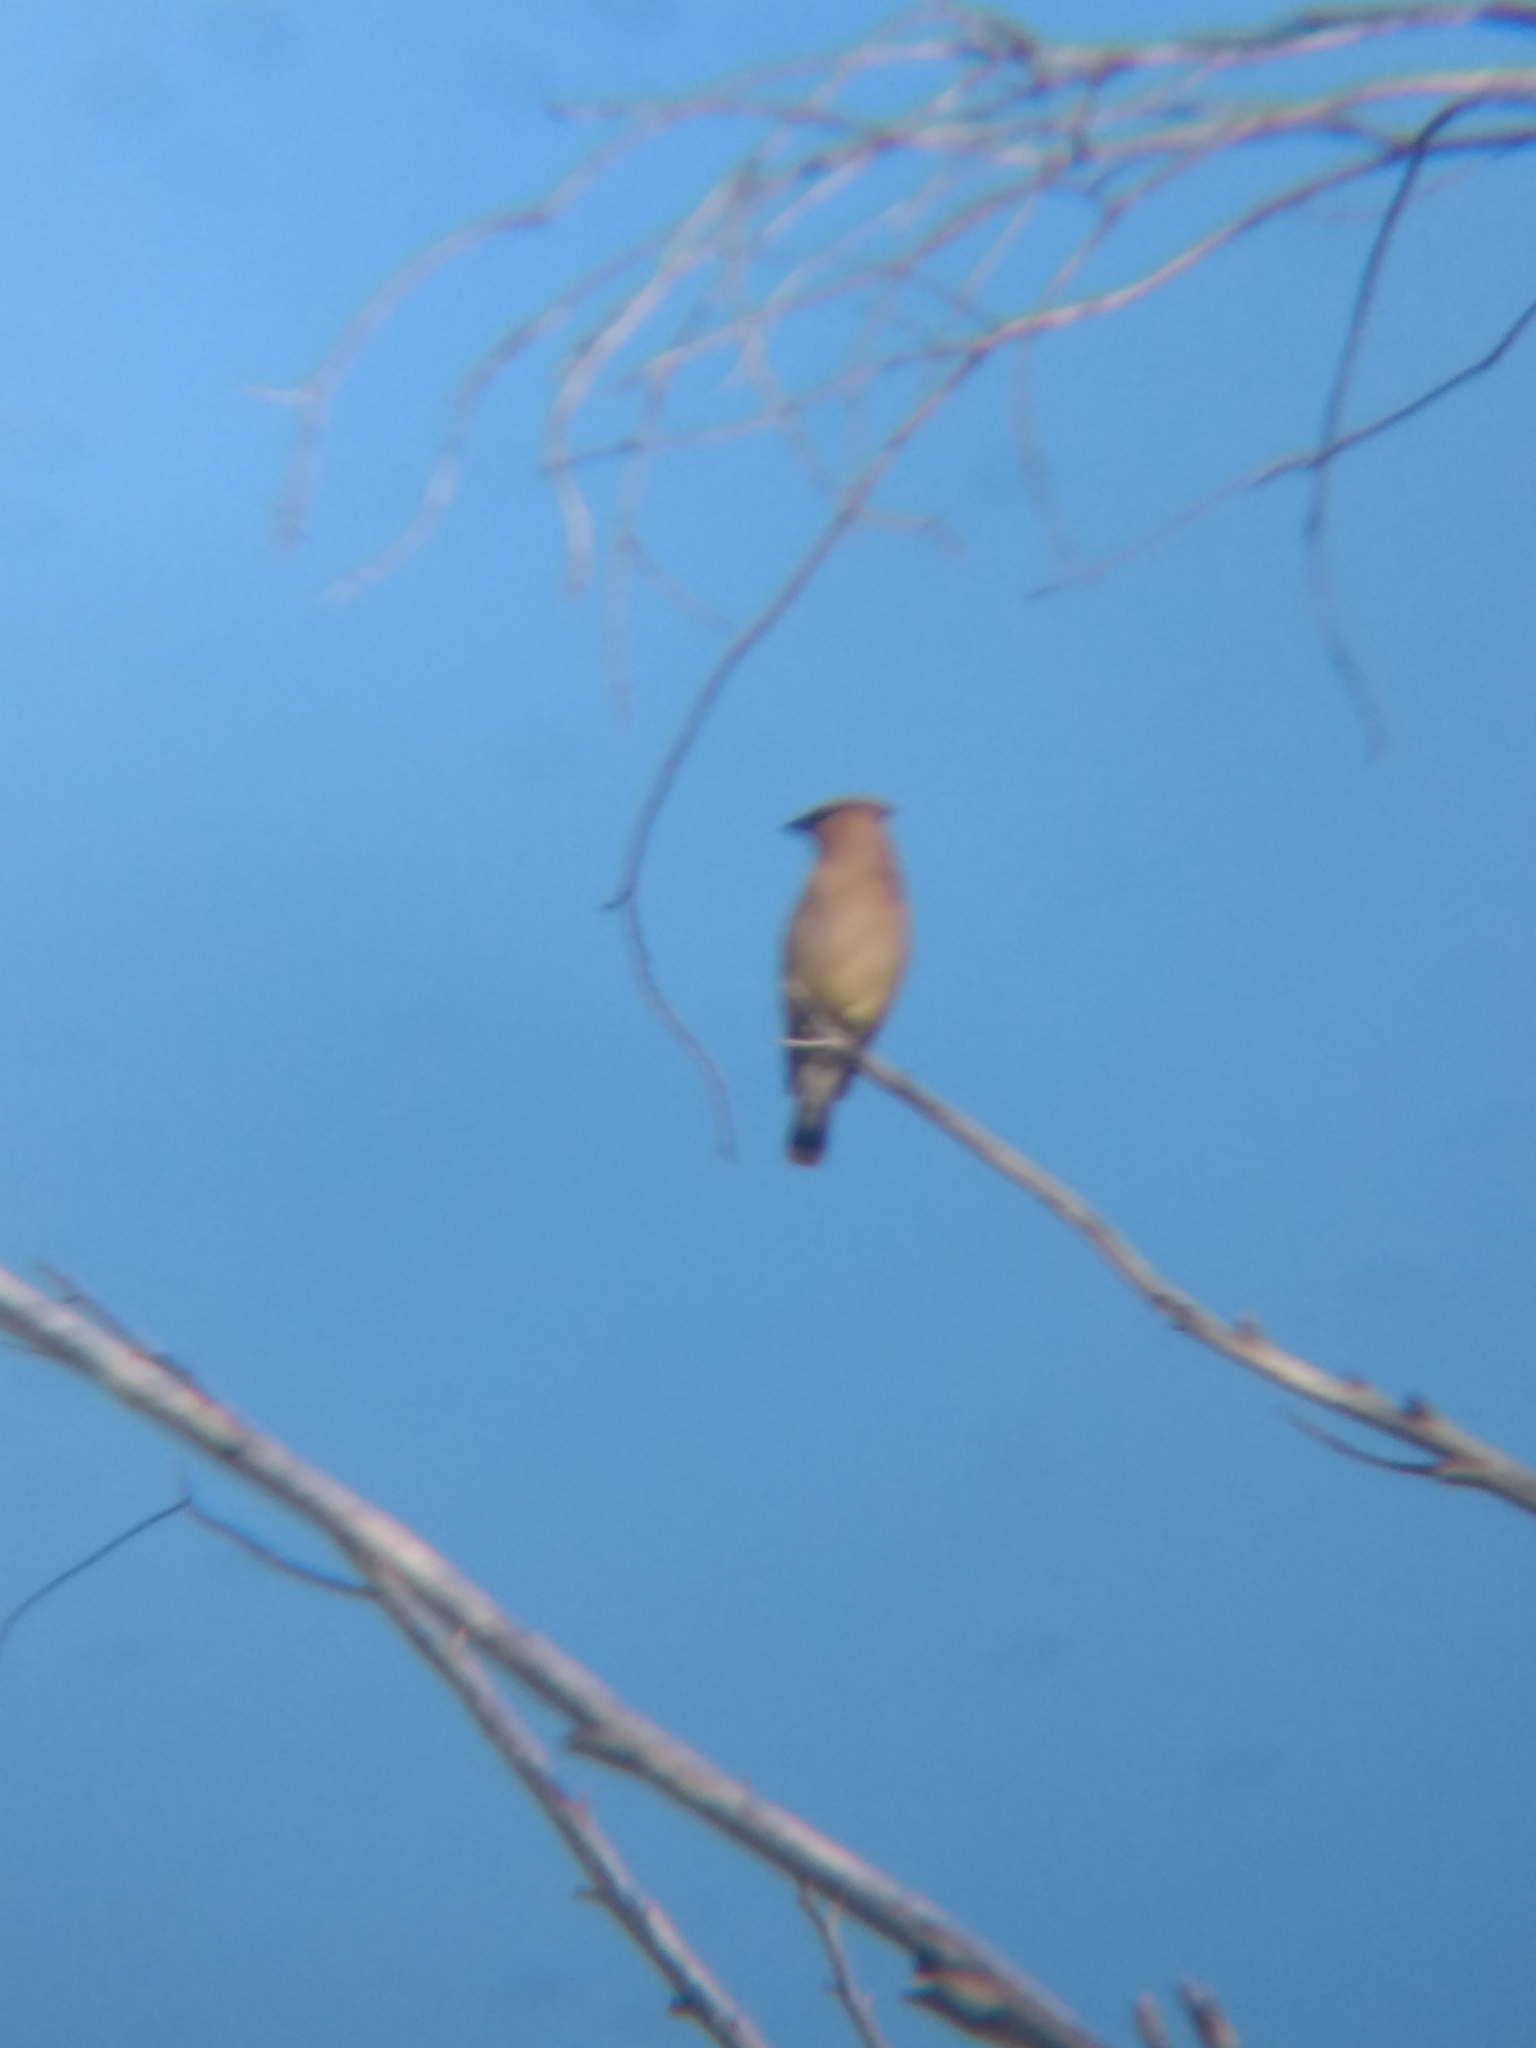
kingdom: Animalia
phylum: Chordata
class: Aves
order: Passeriformes
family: Bombycillidae
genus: Bombycilla
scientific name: Bombycilla cedrorum
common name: Cedar waxwing
